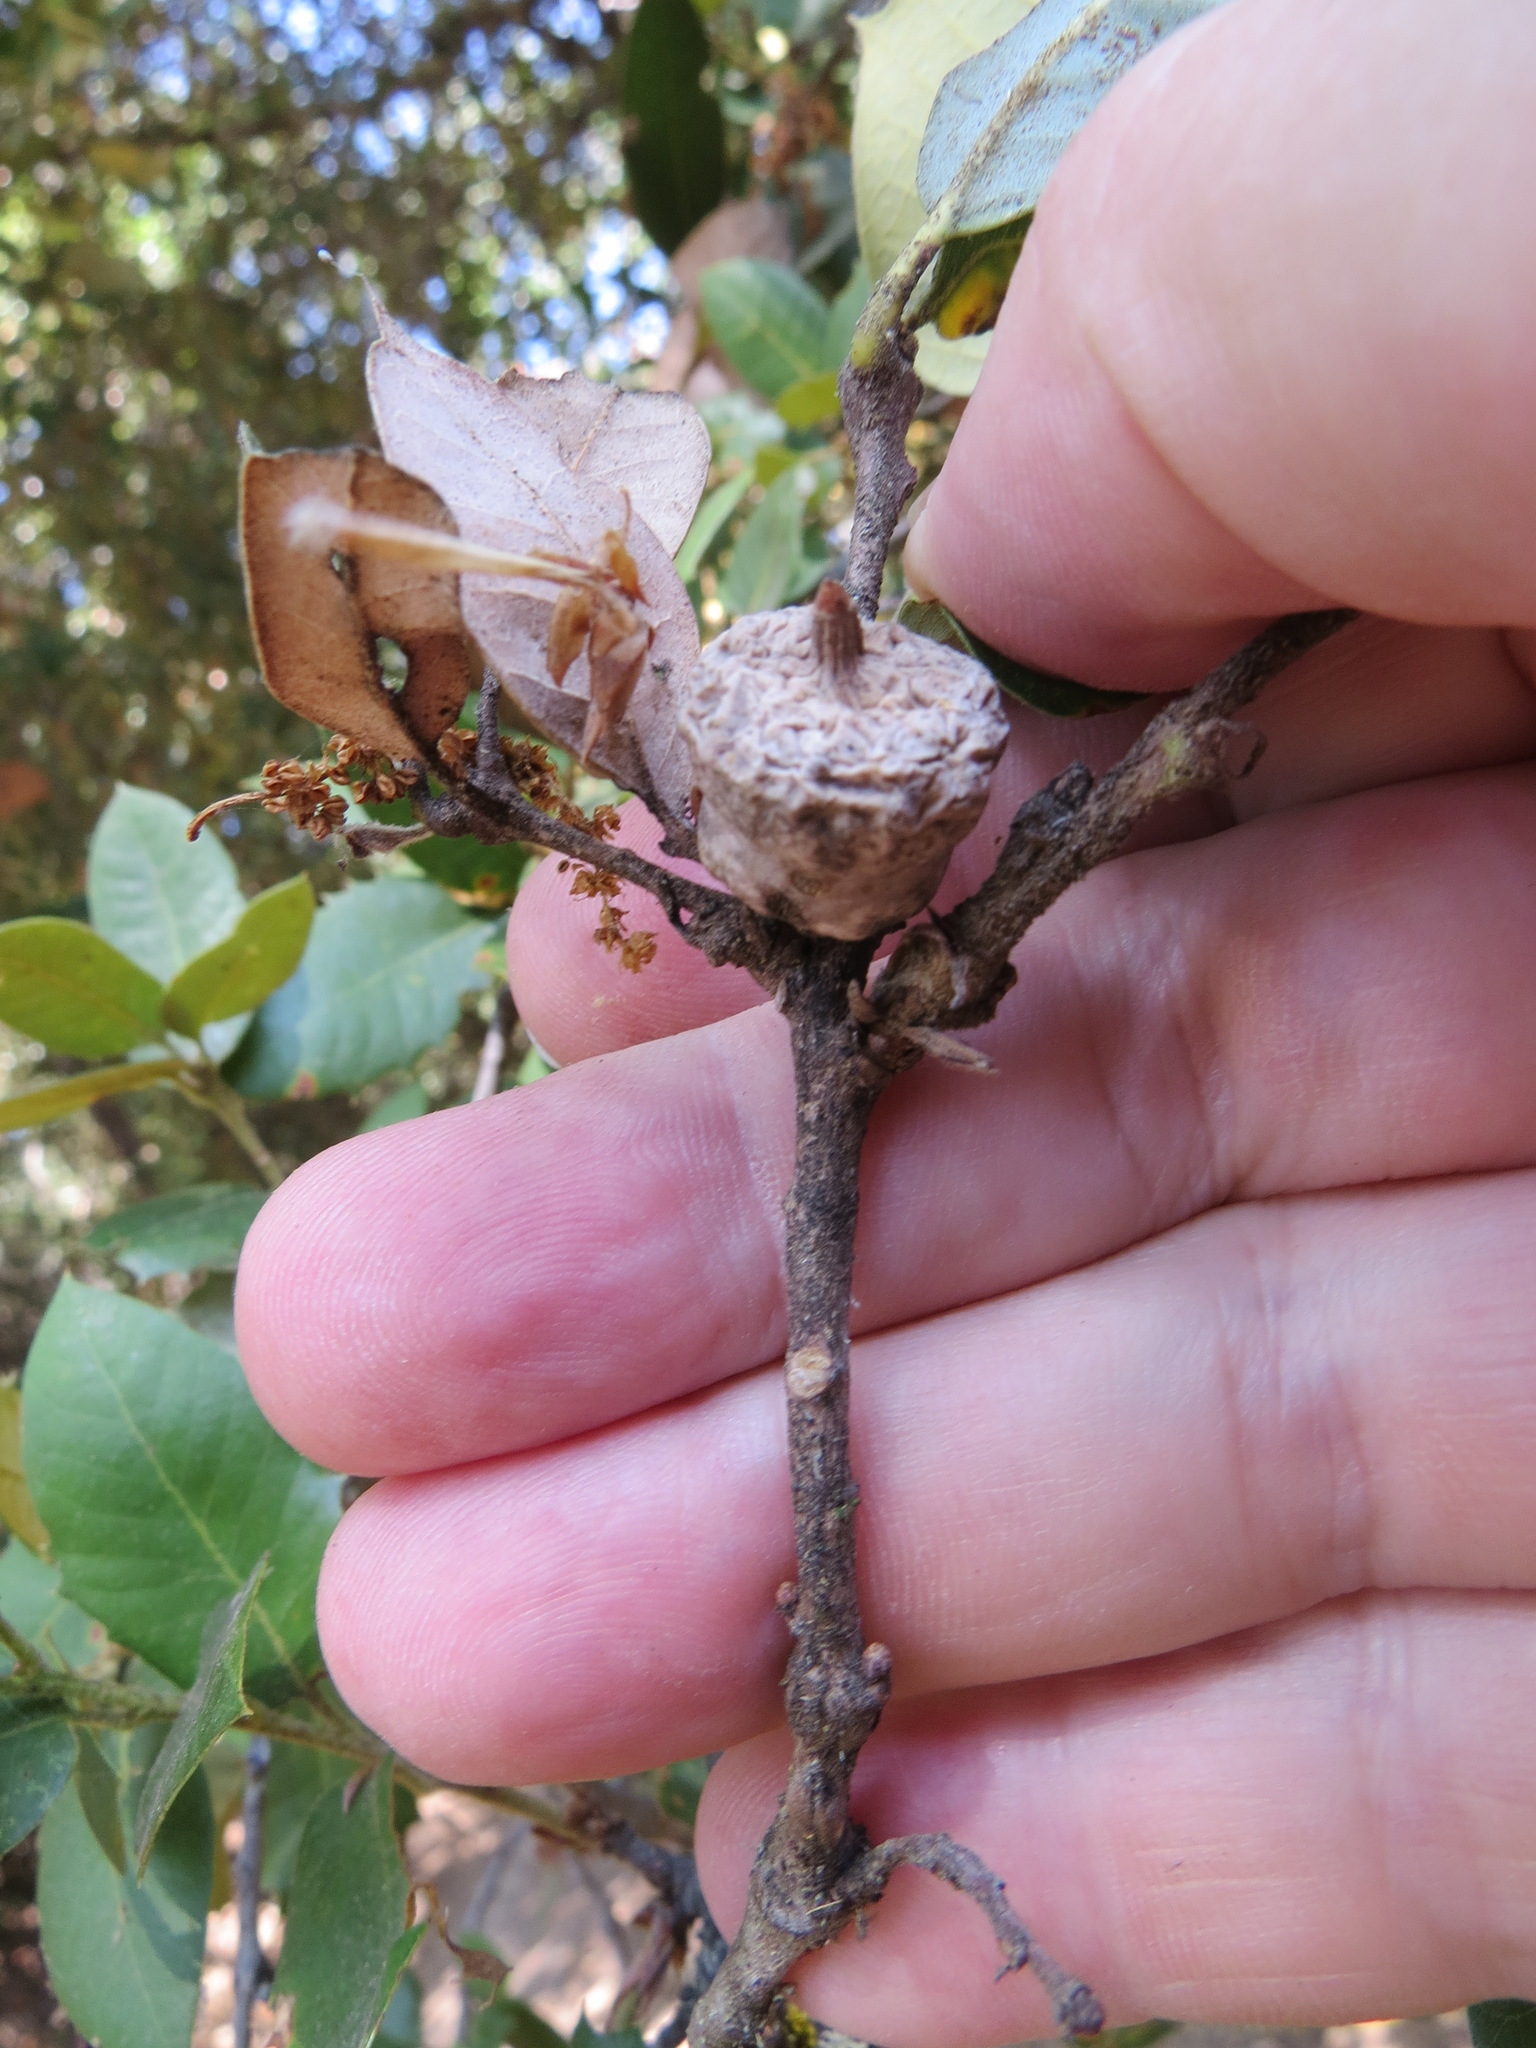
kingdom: Animalia
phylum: Arthropoda
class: Insecta
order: Hymenoptera
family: Cynipidae
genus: Heteroecus
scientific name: Heteroecus
